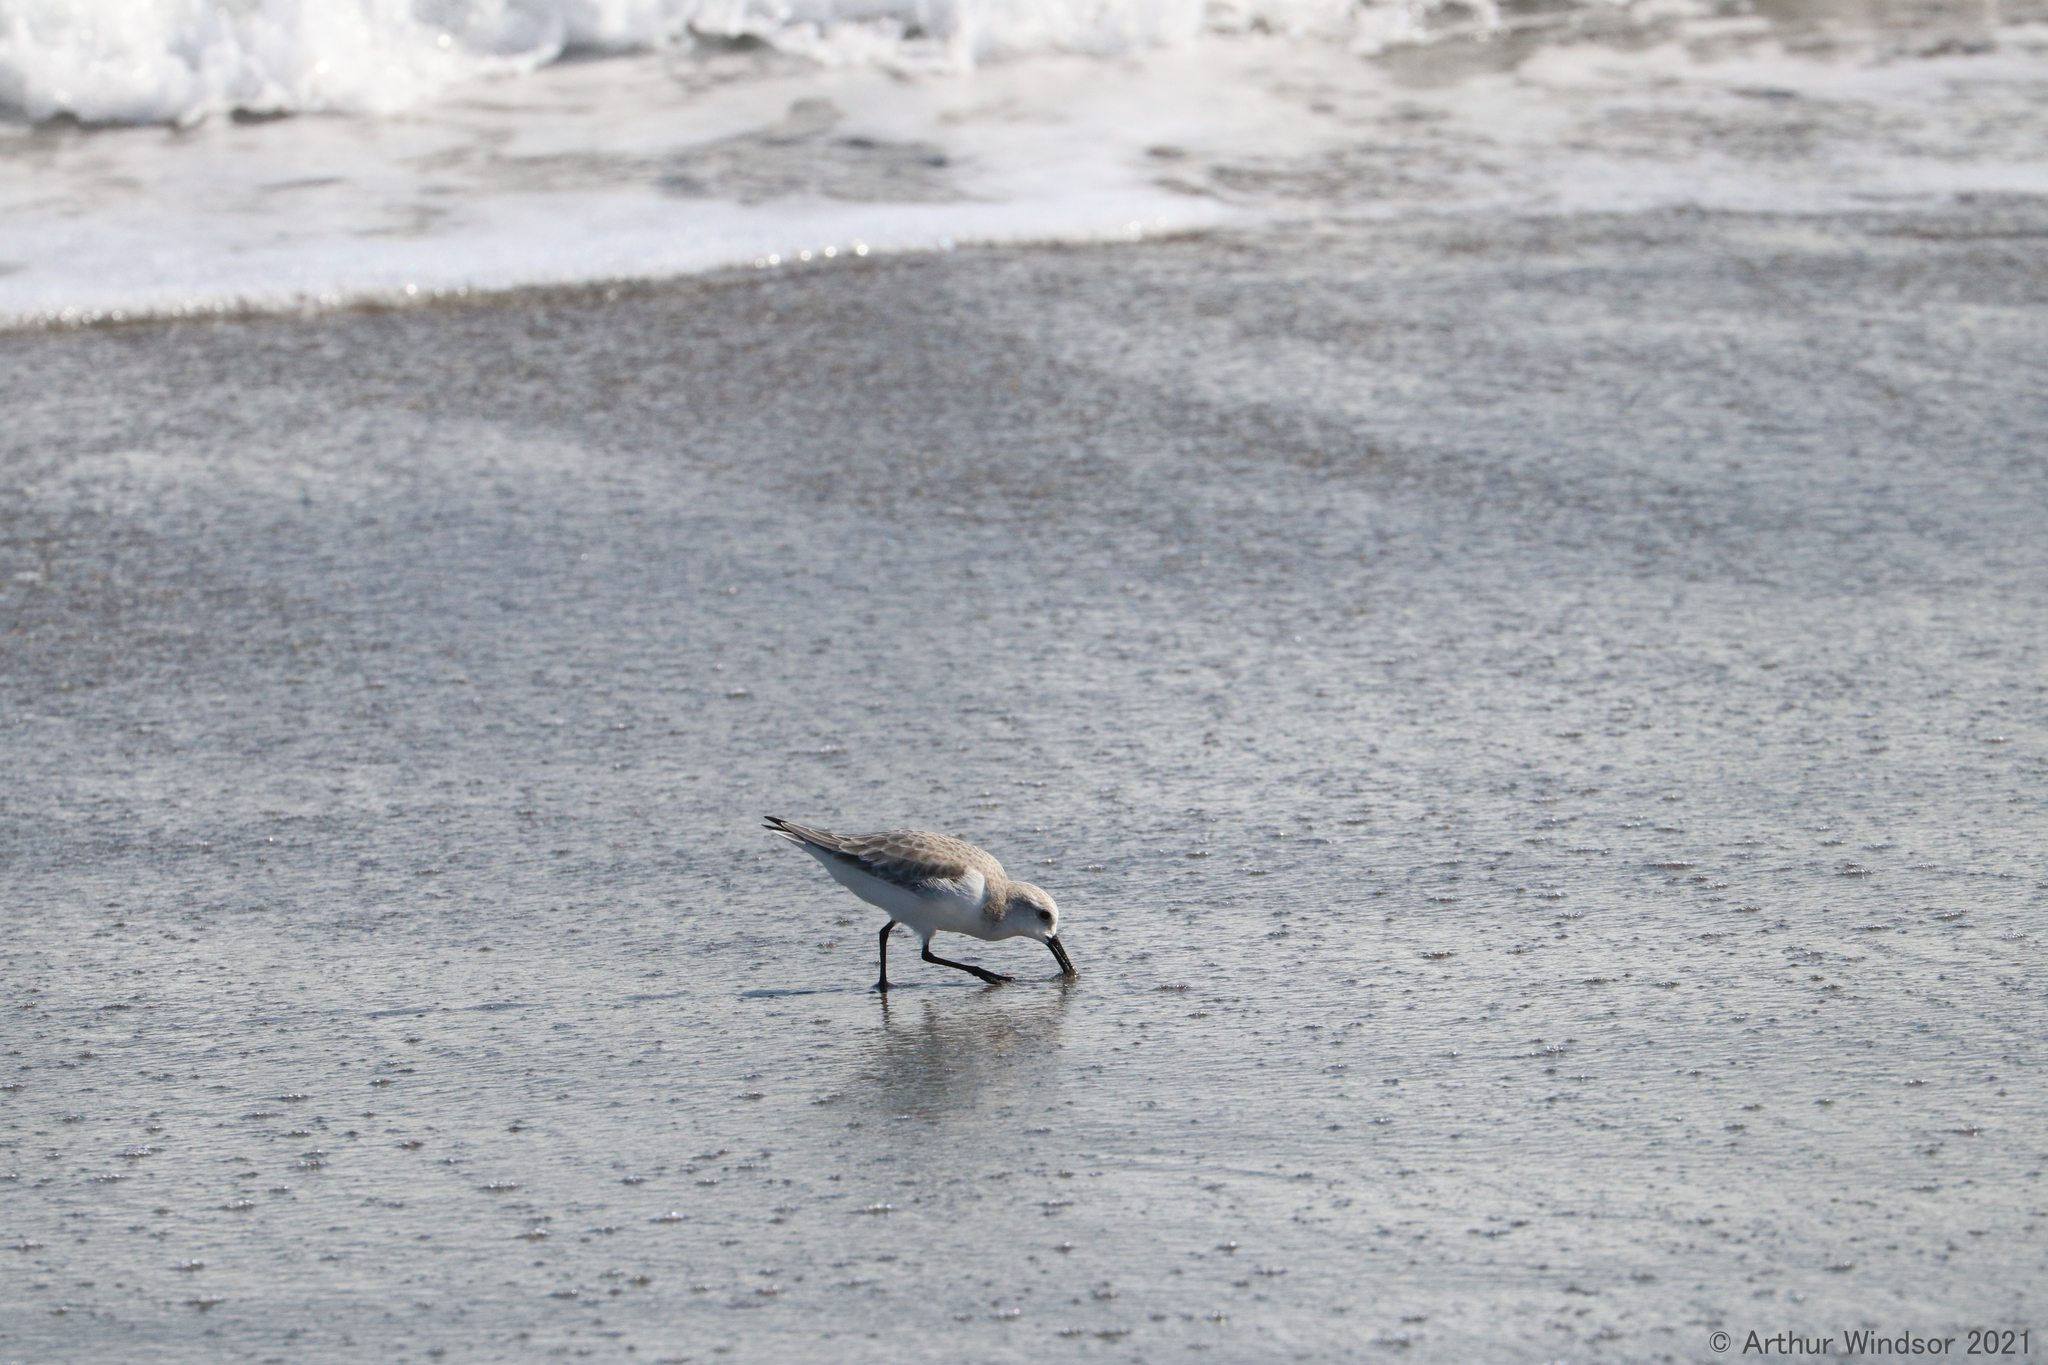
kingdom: Animalia
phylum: Chordata
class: Aves
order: Charadriiformes
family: Scolopacidae
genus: Calidris
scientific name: Calidris alba
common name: Sanderling
